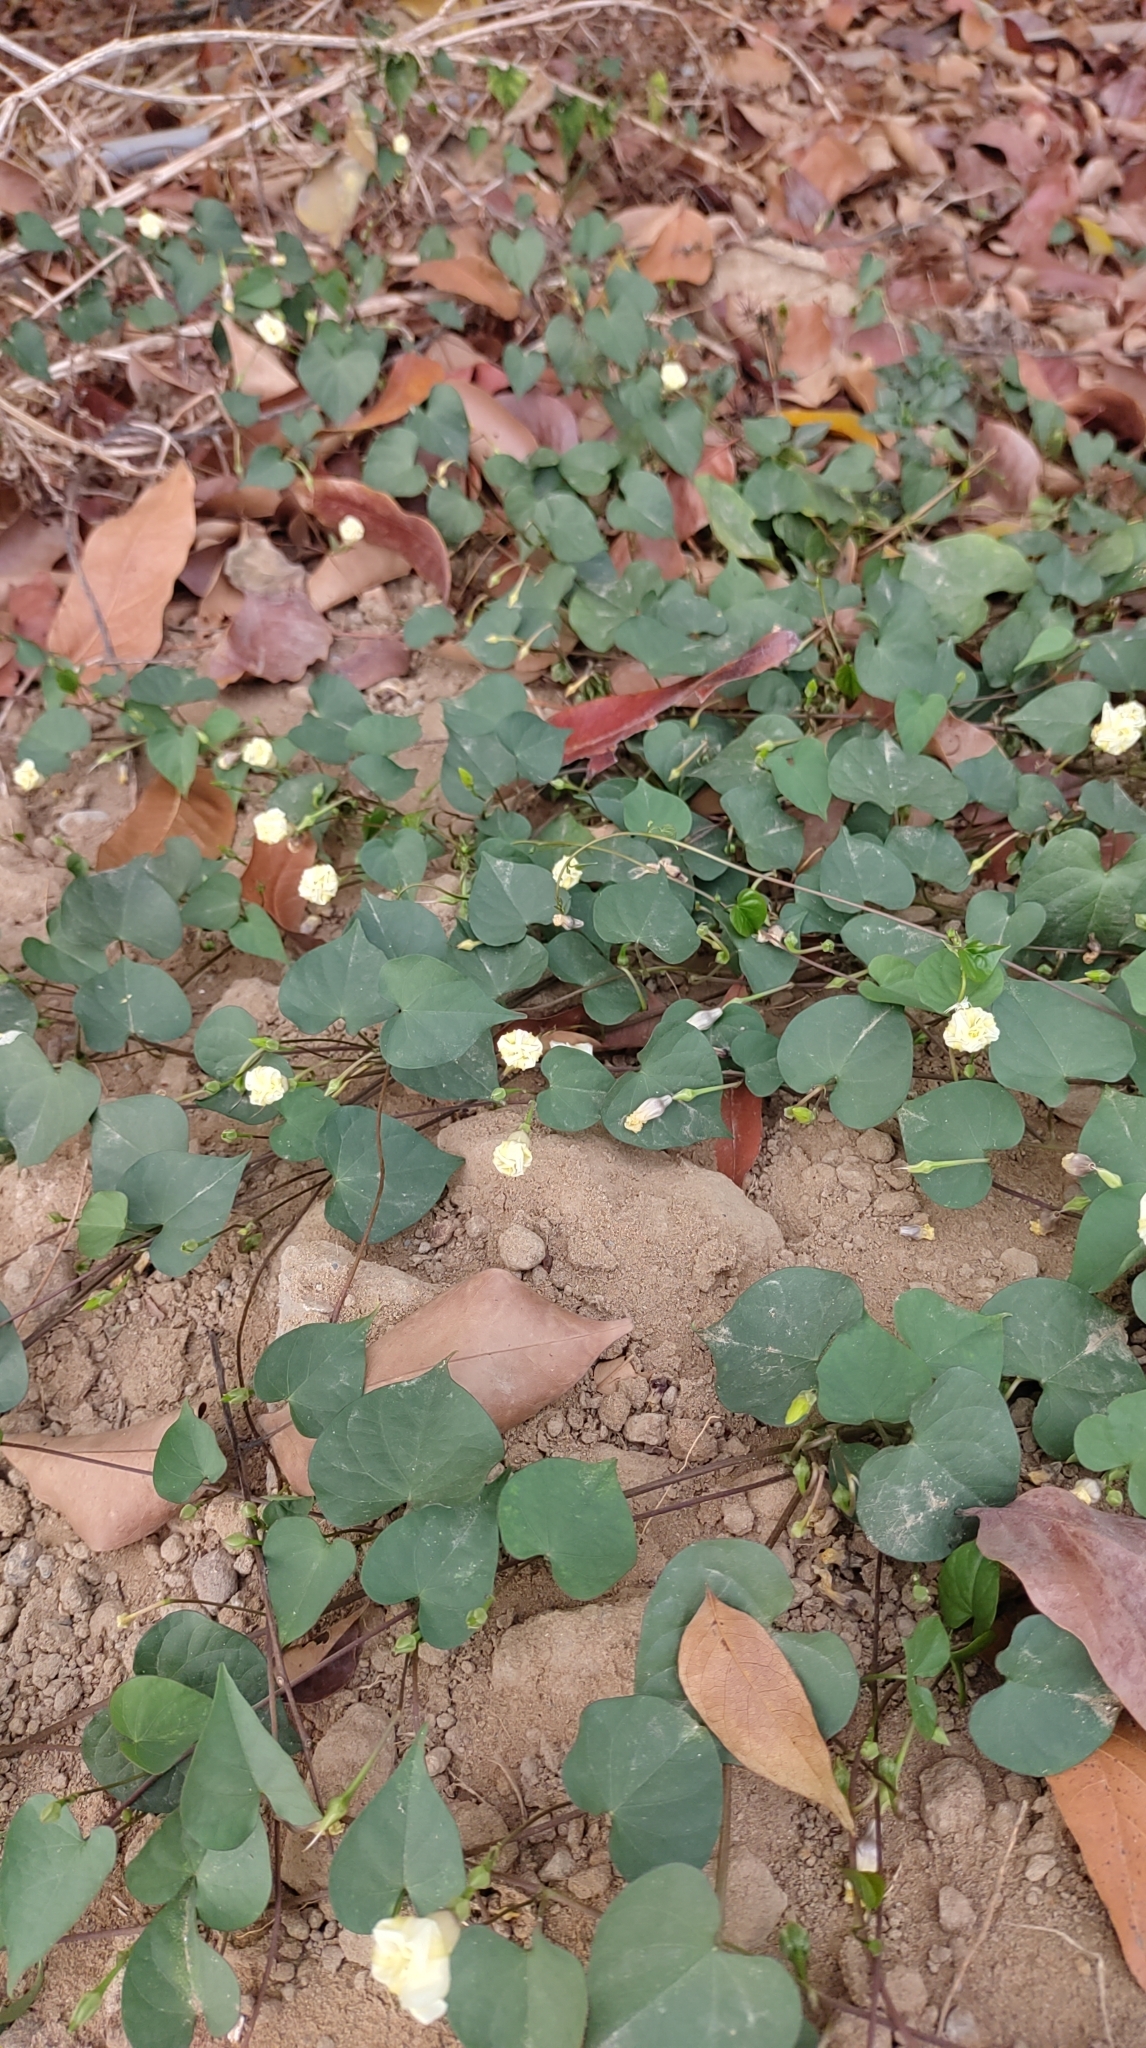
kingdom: Plantae
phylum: Tracheophyta
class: Magnoliopsida
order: Solanales
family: Convolvulaceae
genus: Ipomoea
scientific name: Ipomoea obscura
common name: Obscure morning-glory
